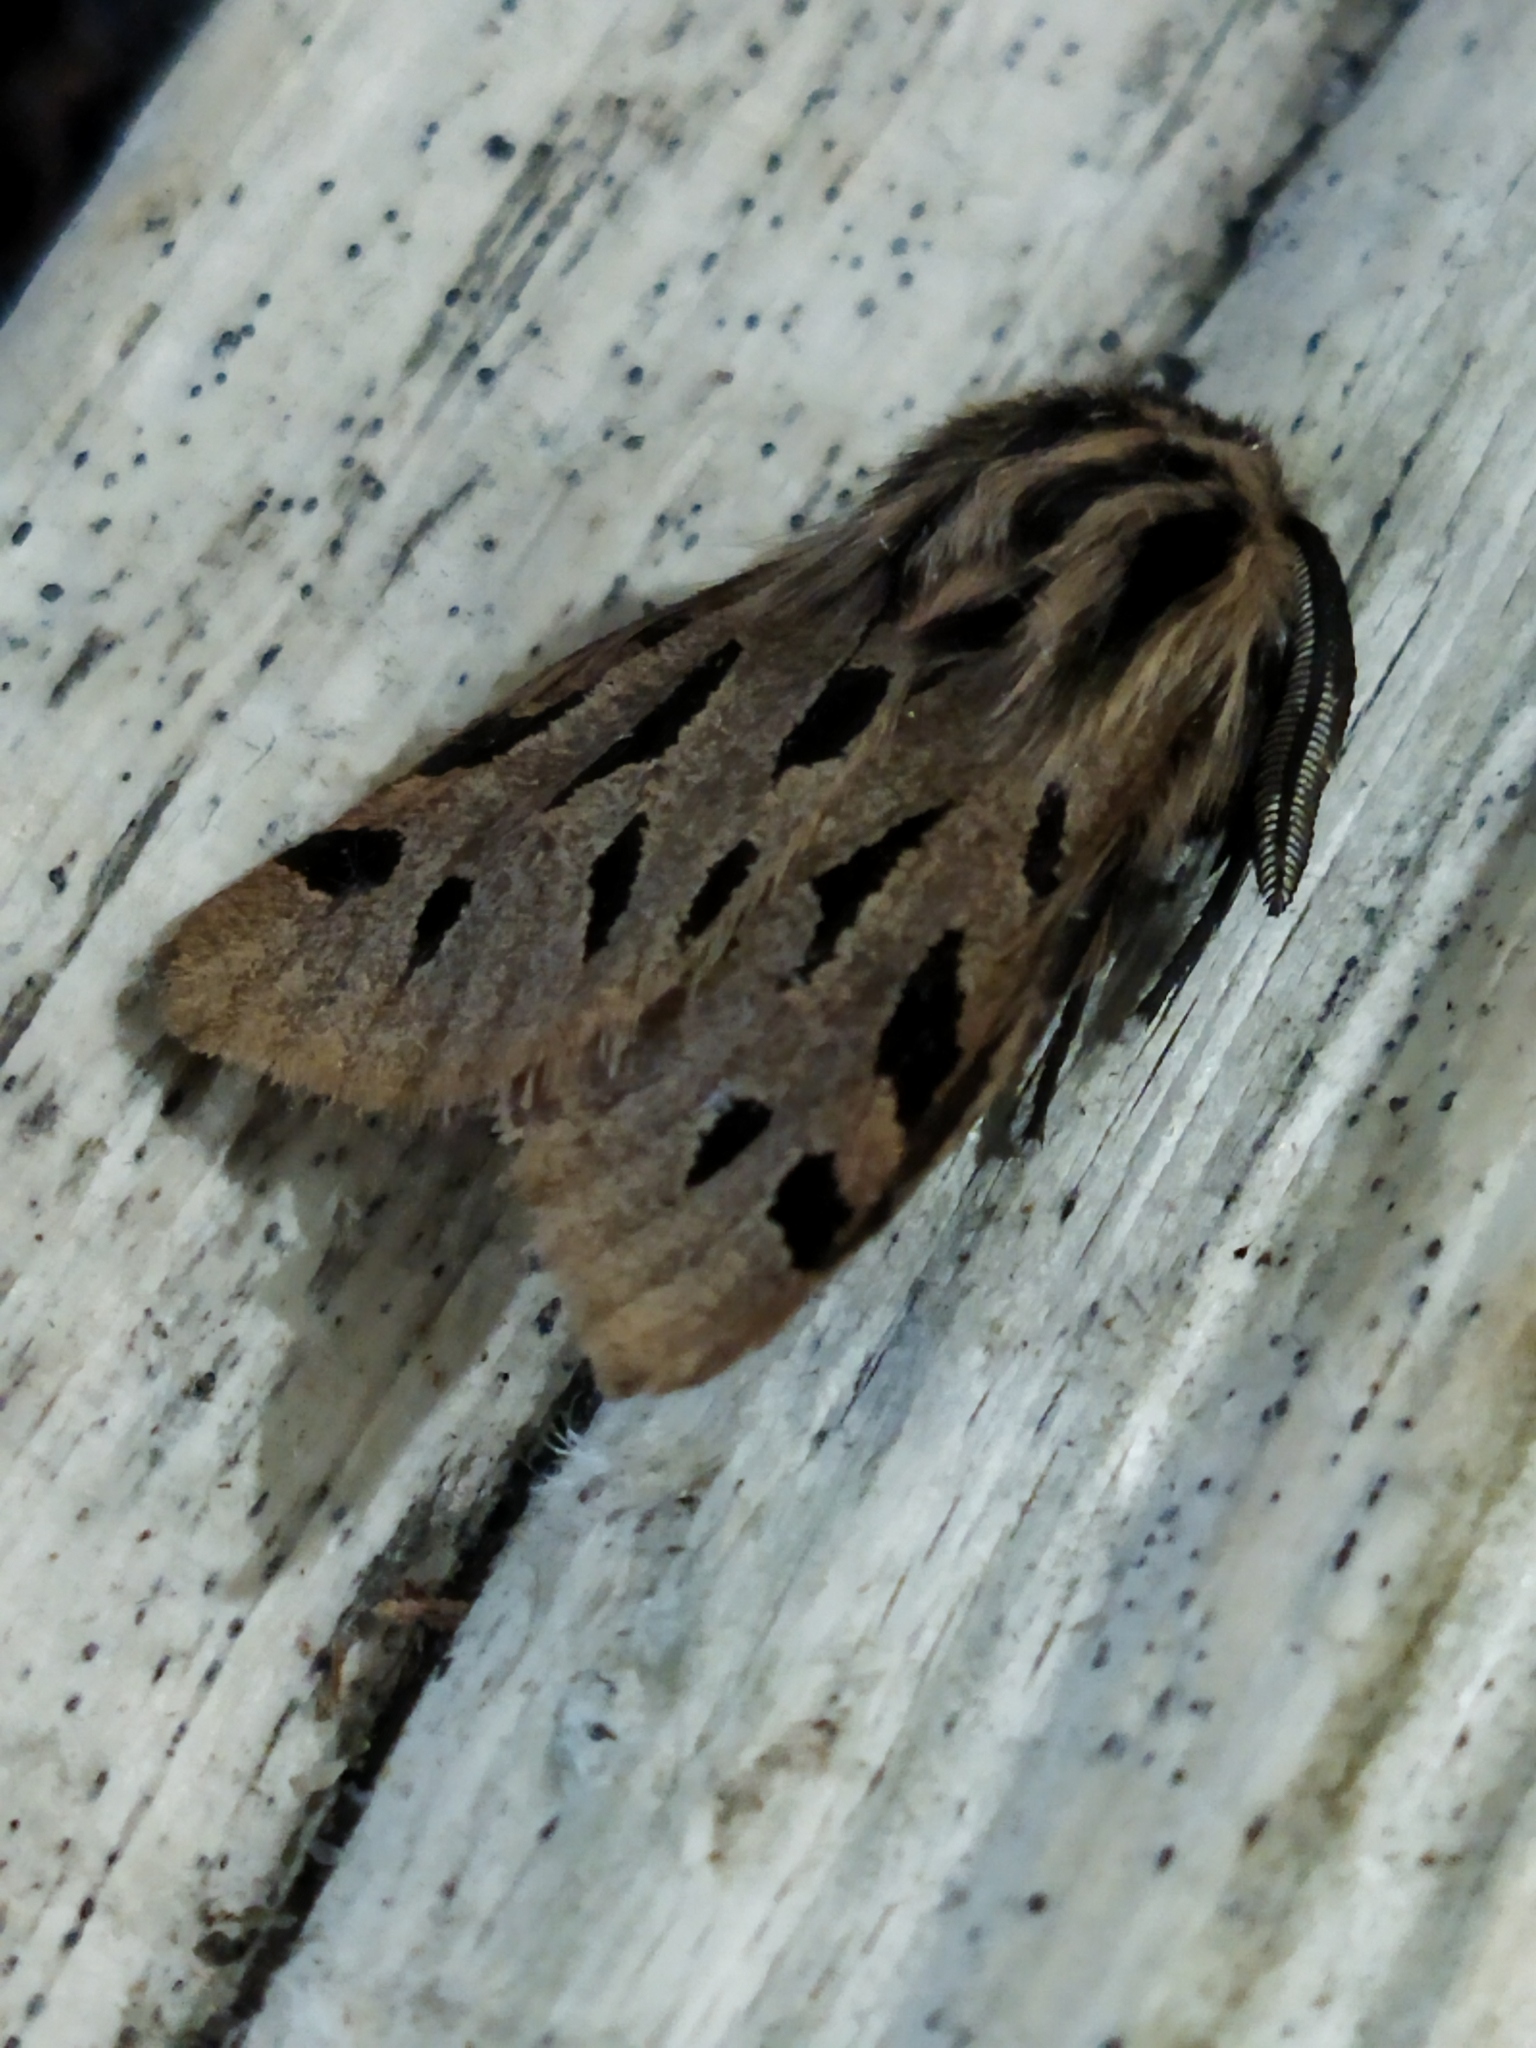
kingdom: Animalia
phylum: Arthropoda
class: Insecta
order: Lepidoptera
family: Erebidae
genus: Ocnogyna
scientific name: Ocnogyna parasita
